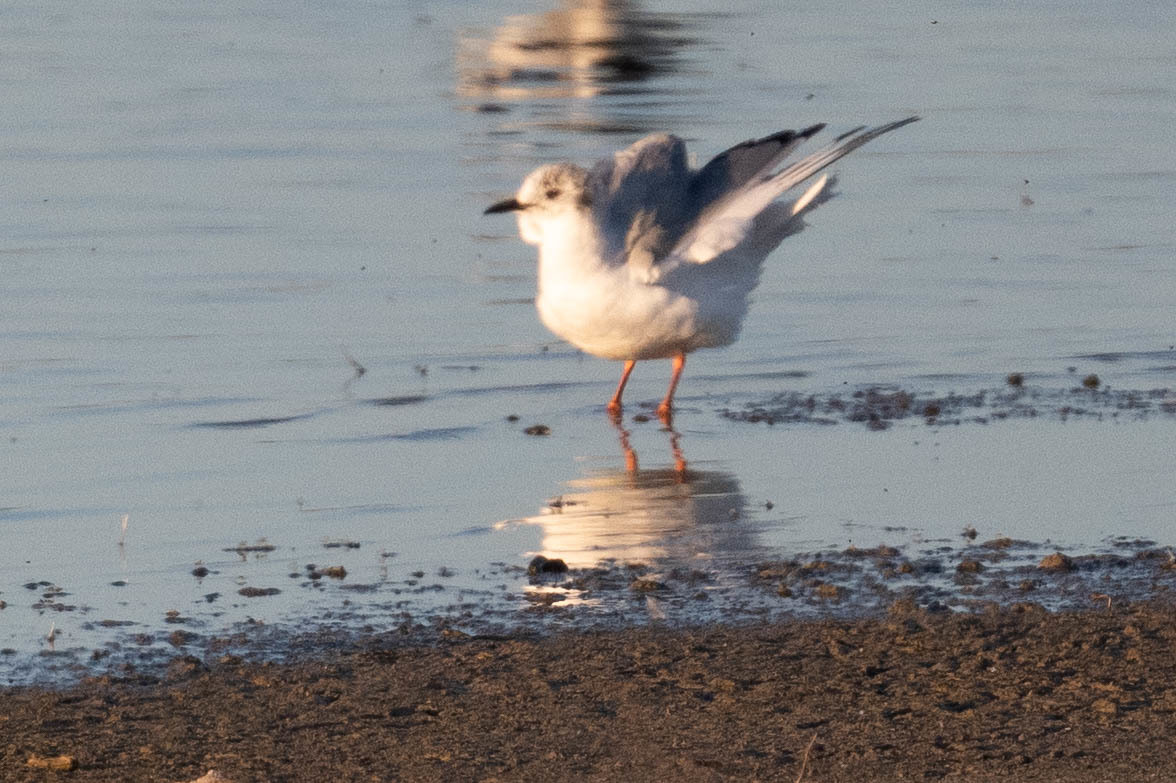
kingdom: Animalia
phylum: Chordata
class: Aves
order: Charadriiformes
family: Laridae
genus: Chroicocephalus
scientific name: Chroicocephalus philadelphia
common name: Bonaparte's gull
